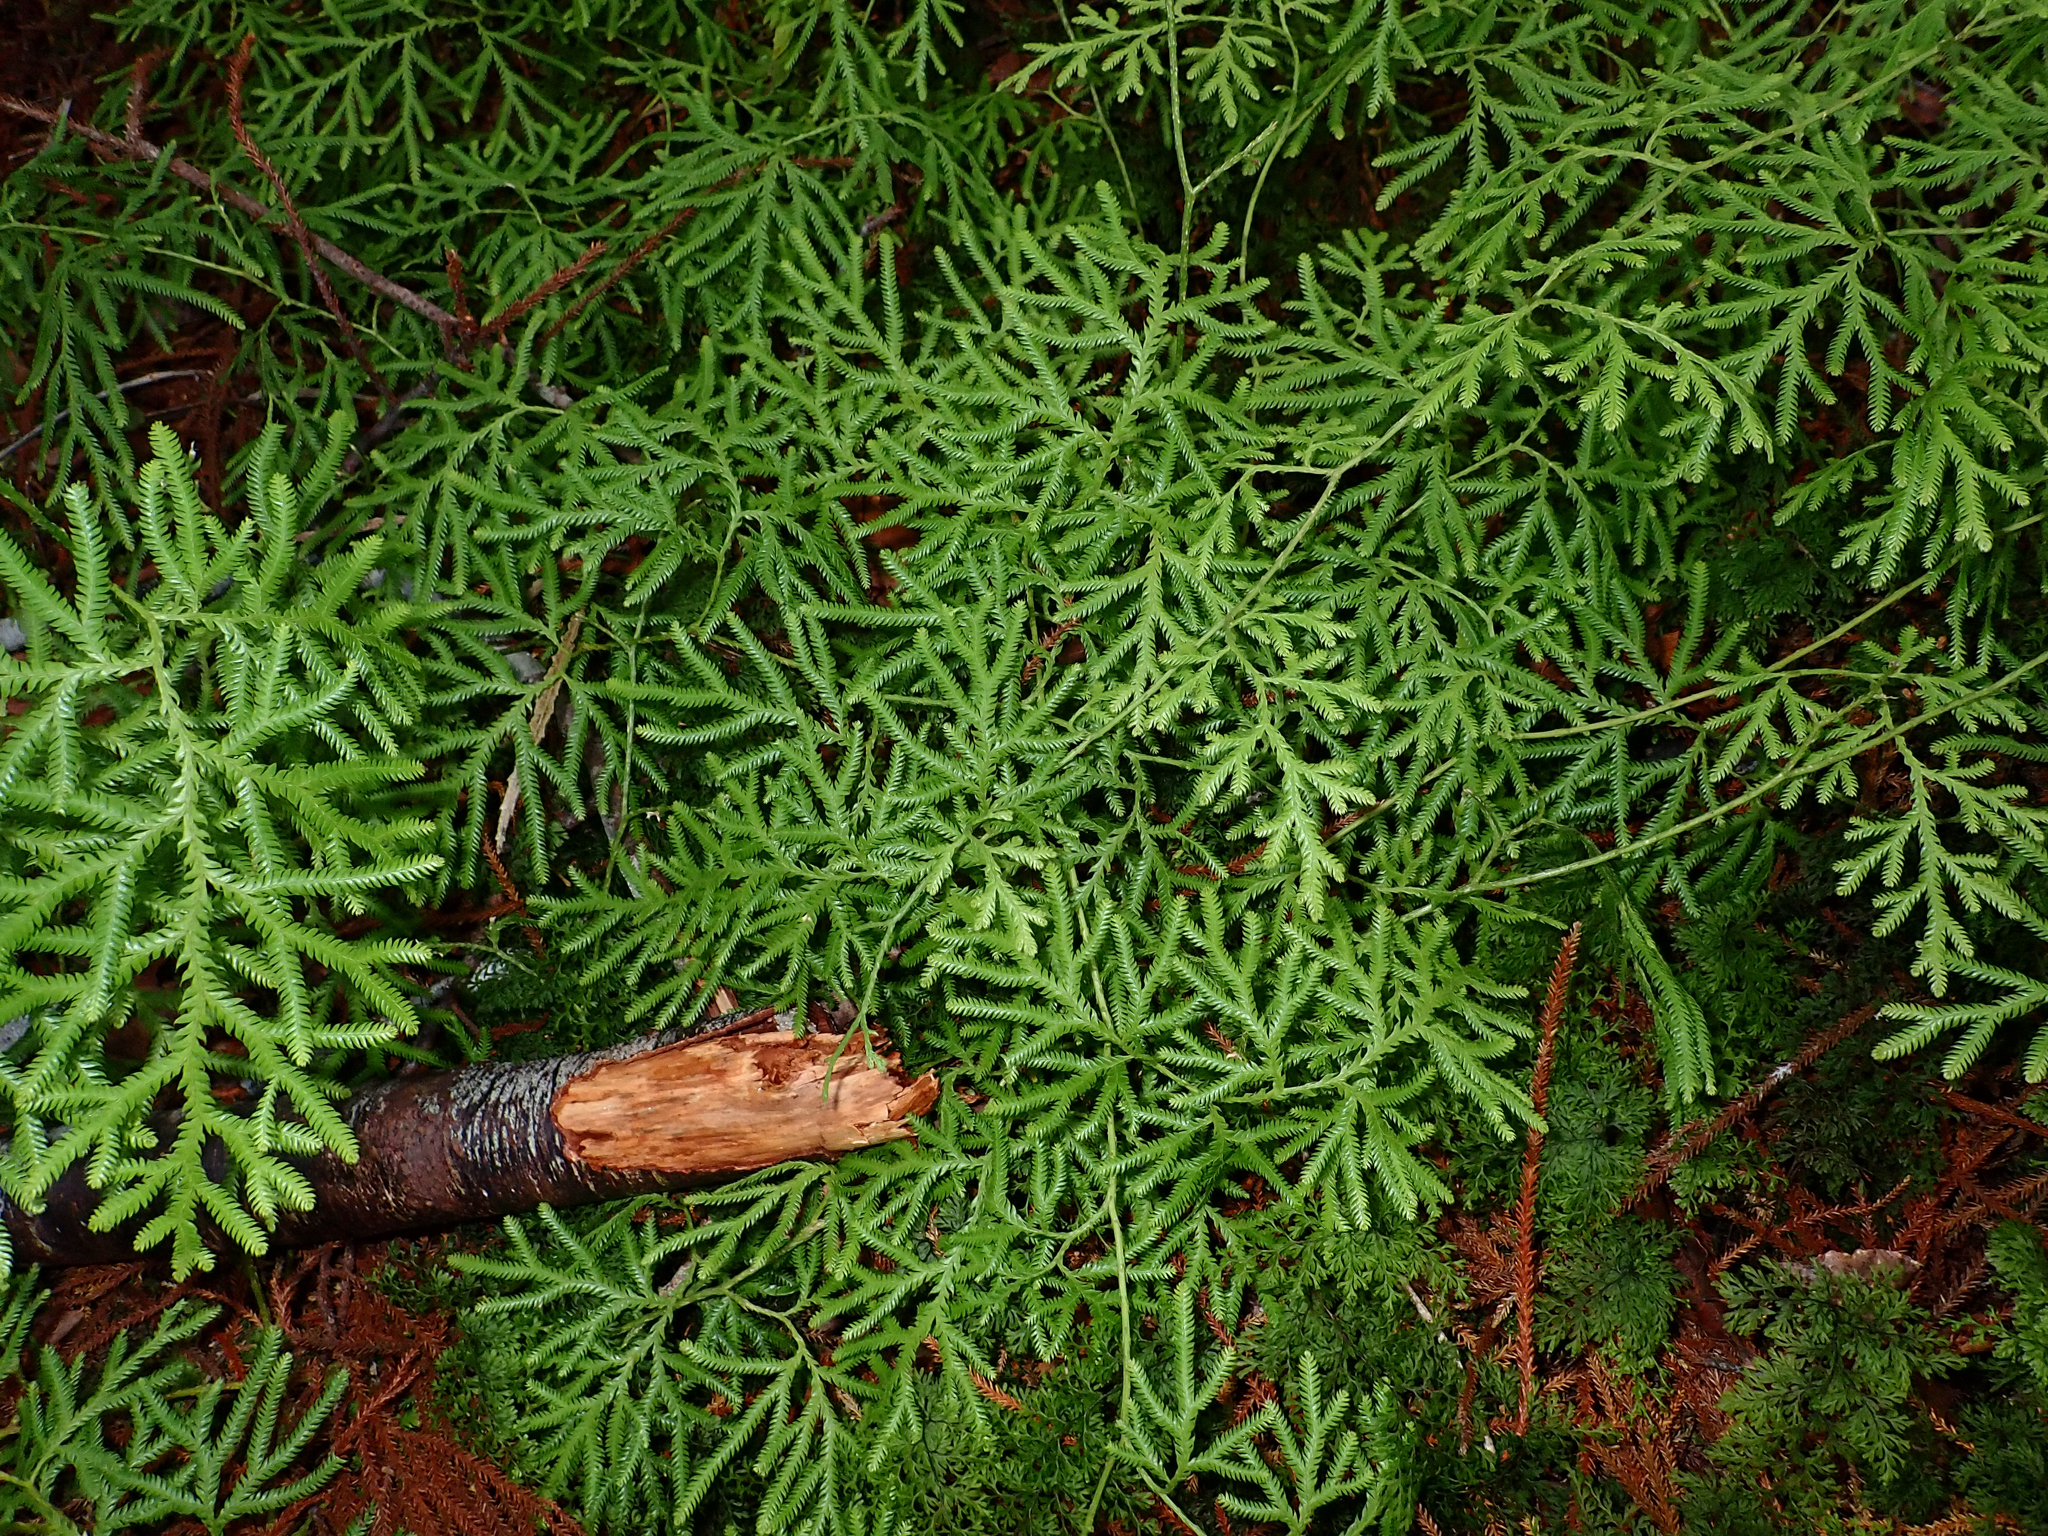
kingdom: Plantae
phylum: Tracheophyta
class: Lycopodiopsida
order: Lycopodiales
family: Lycopodiaceae
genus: Lycopodium
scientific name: Lycopodium volubile
